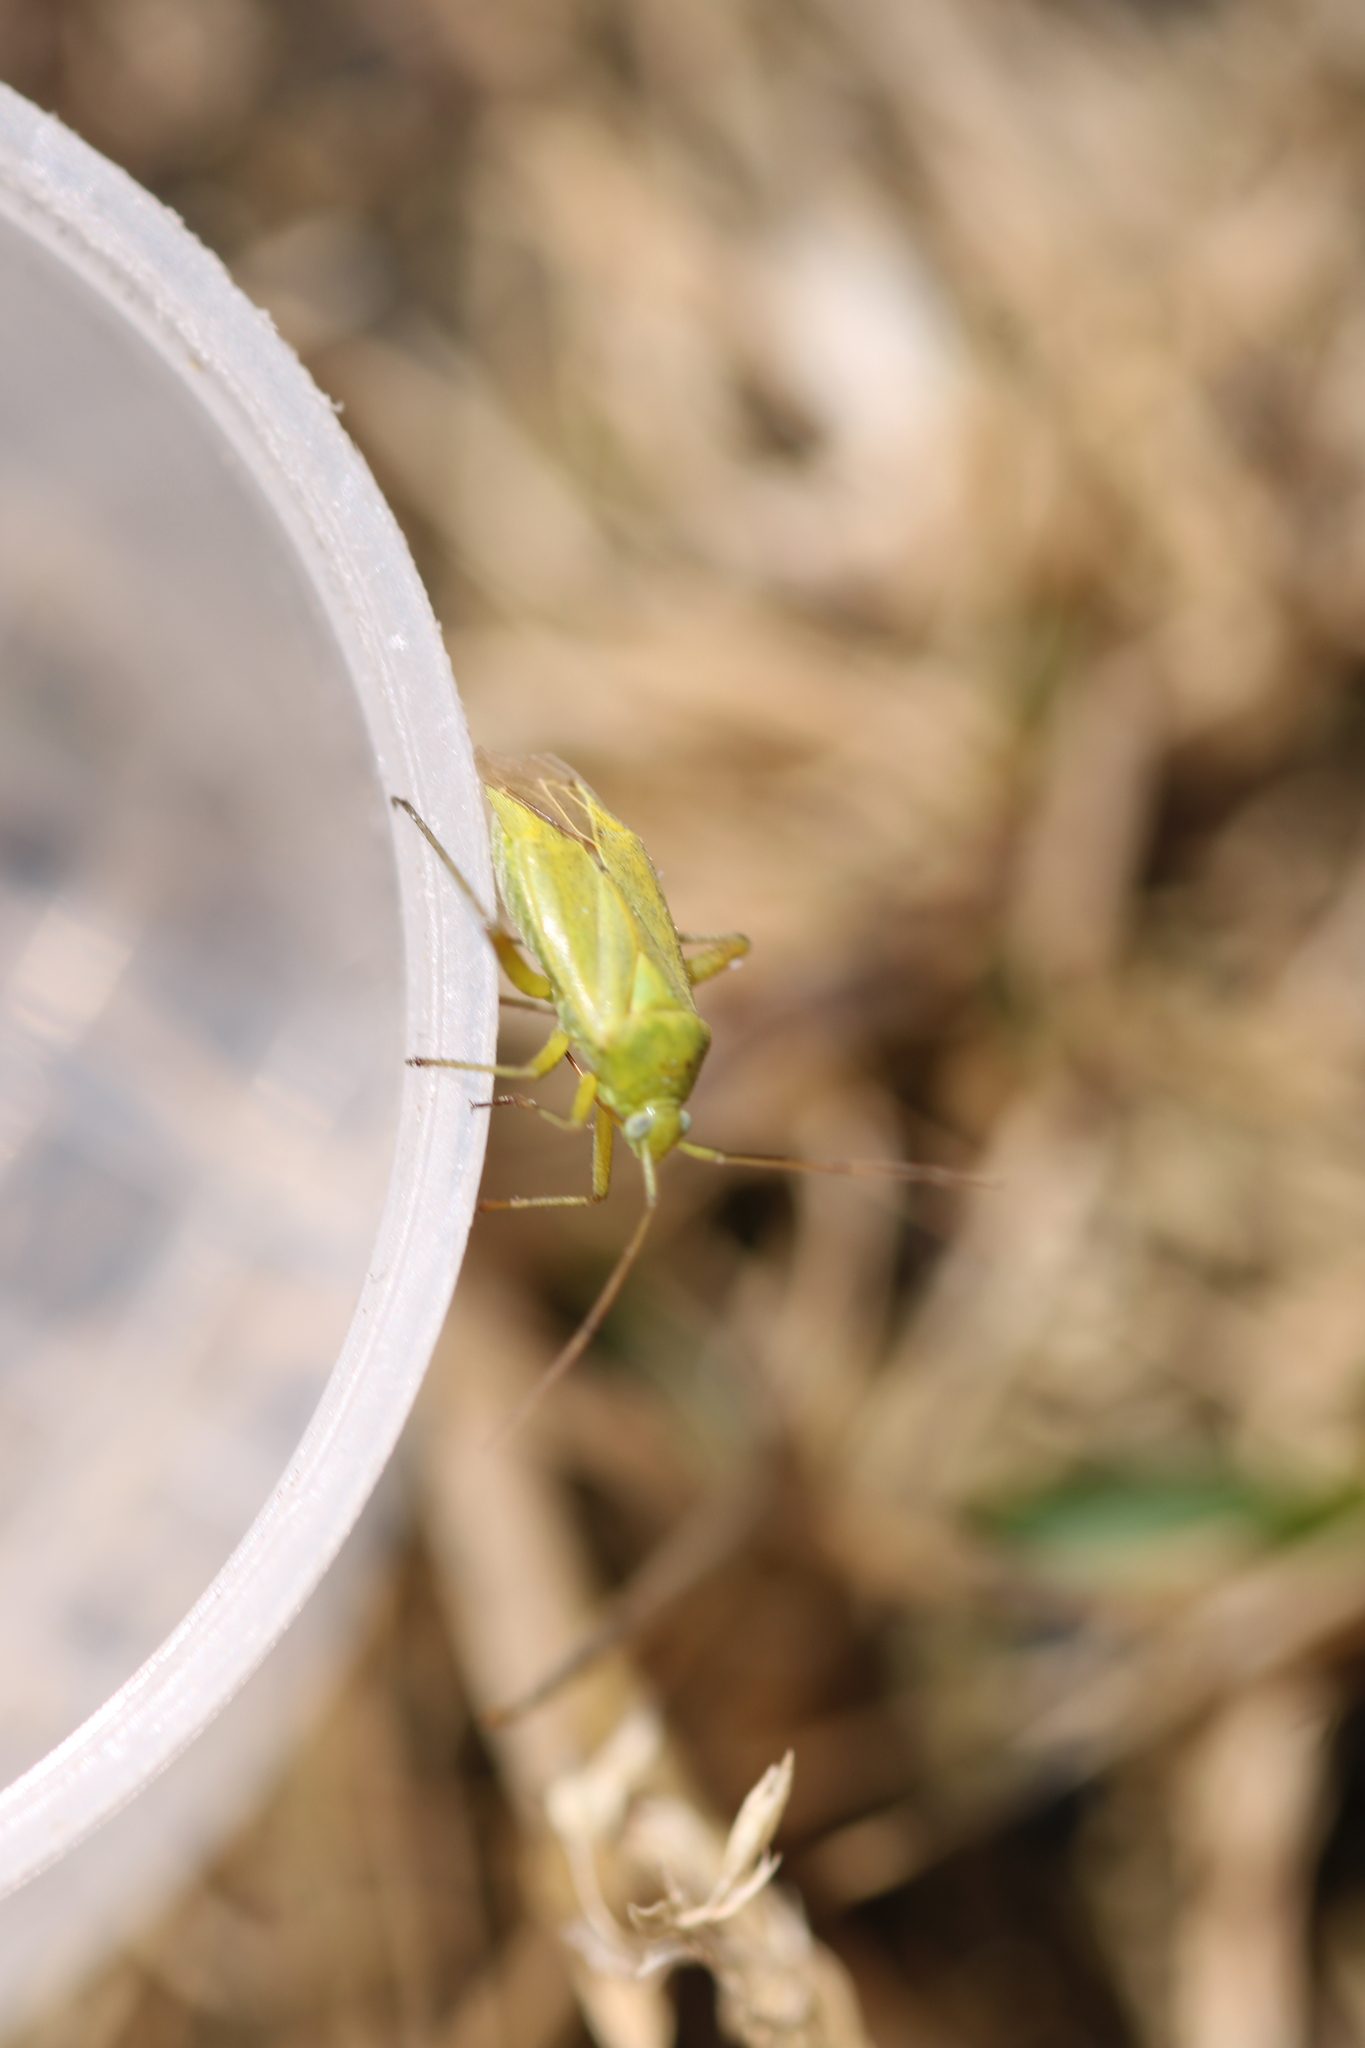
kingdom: Animalia
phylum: Arthropoda
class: Insecta
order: Hemiptera
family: Miridae
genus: Closterotomus
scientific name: Closterotomus norvegicus
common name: Plant bug
